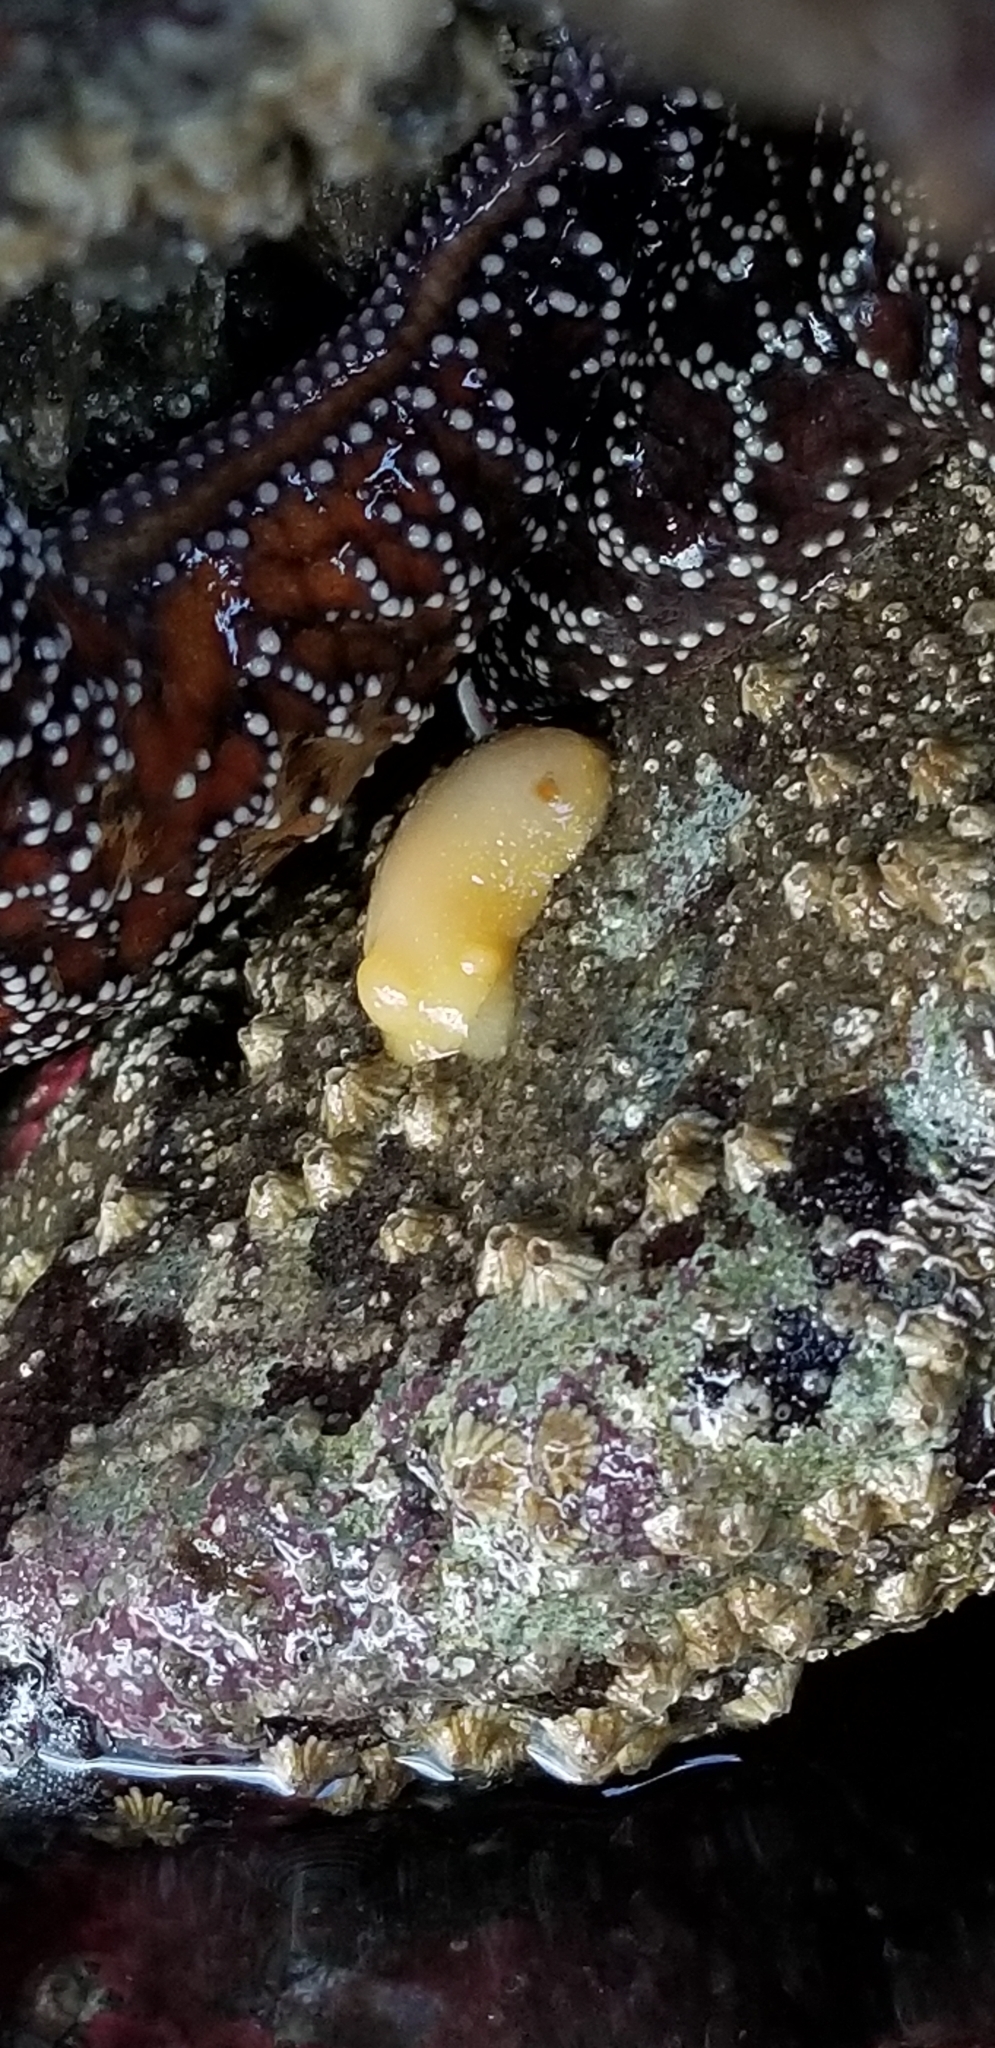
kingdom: Animalia
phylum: Mollusca
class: Gastropoda
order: Nudibranchia
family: Cadlinidae
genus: Cadlina
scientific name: Cadlina modesta
